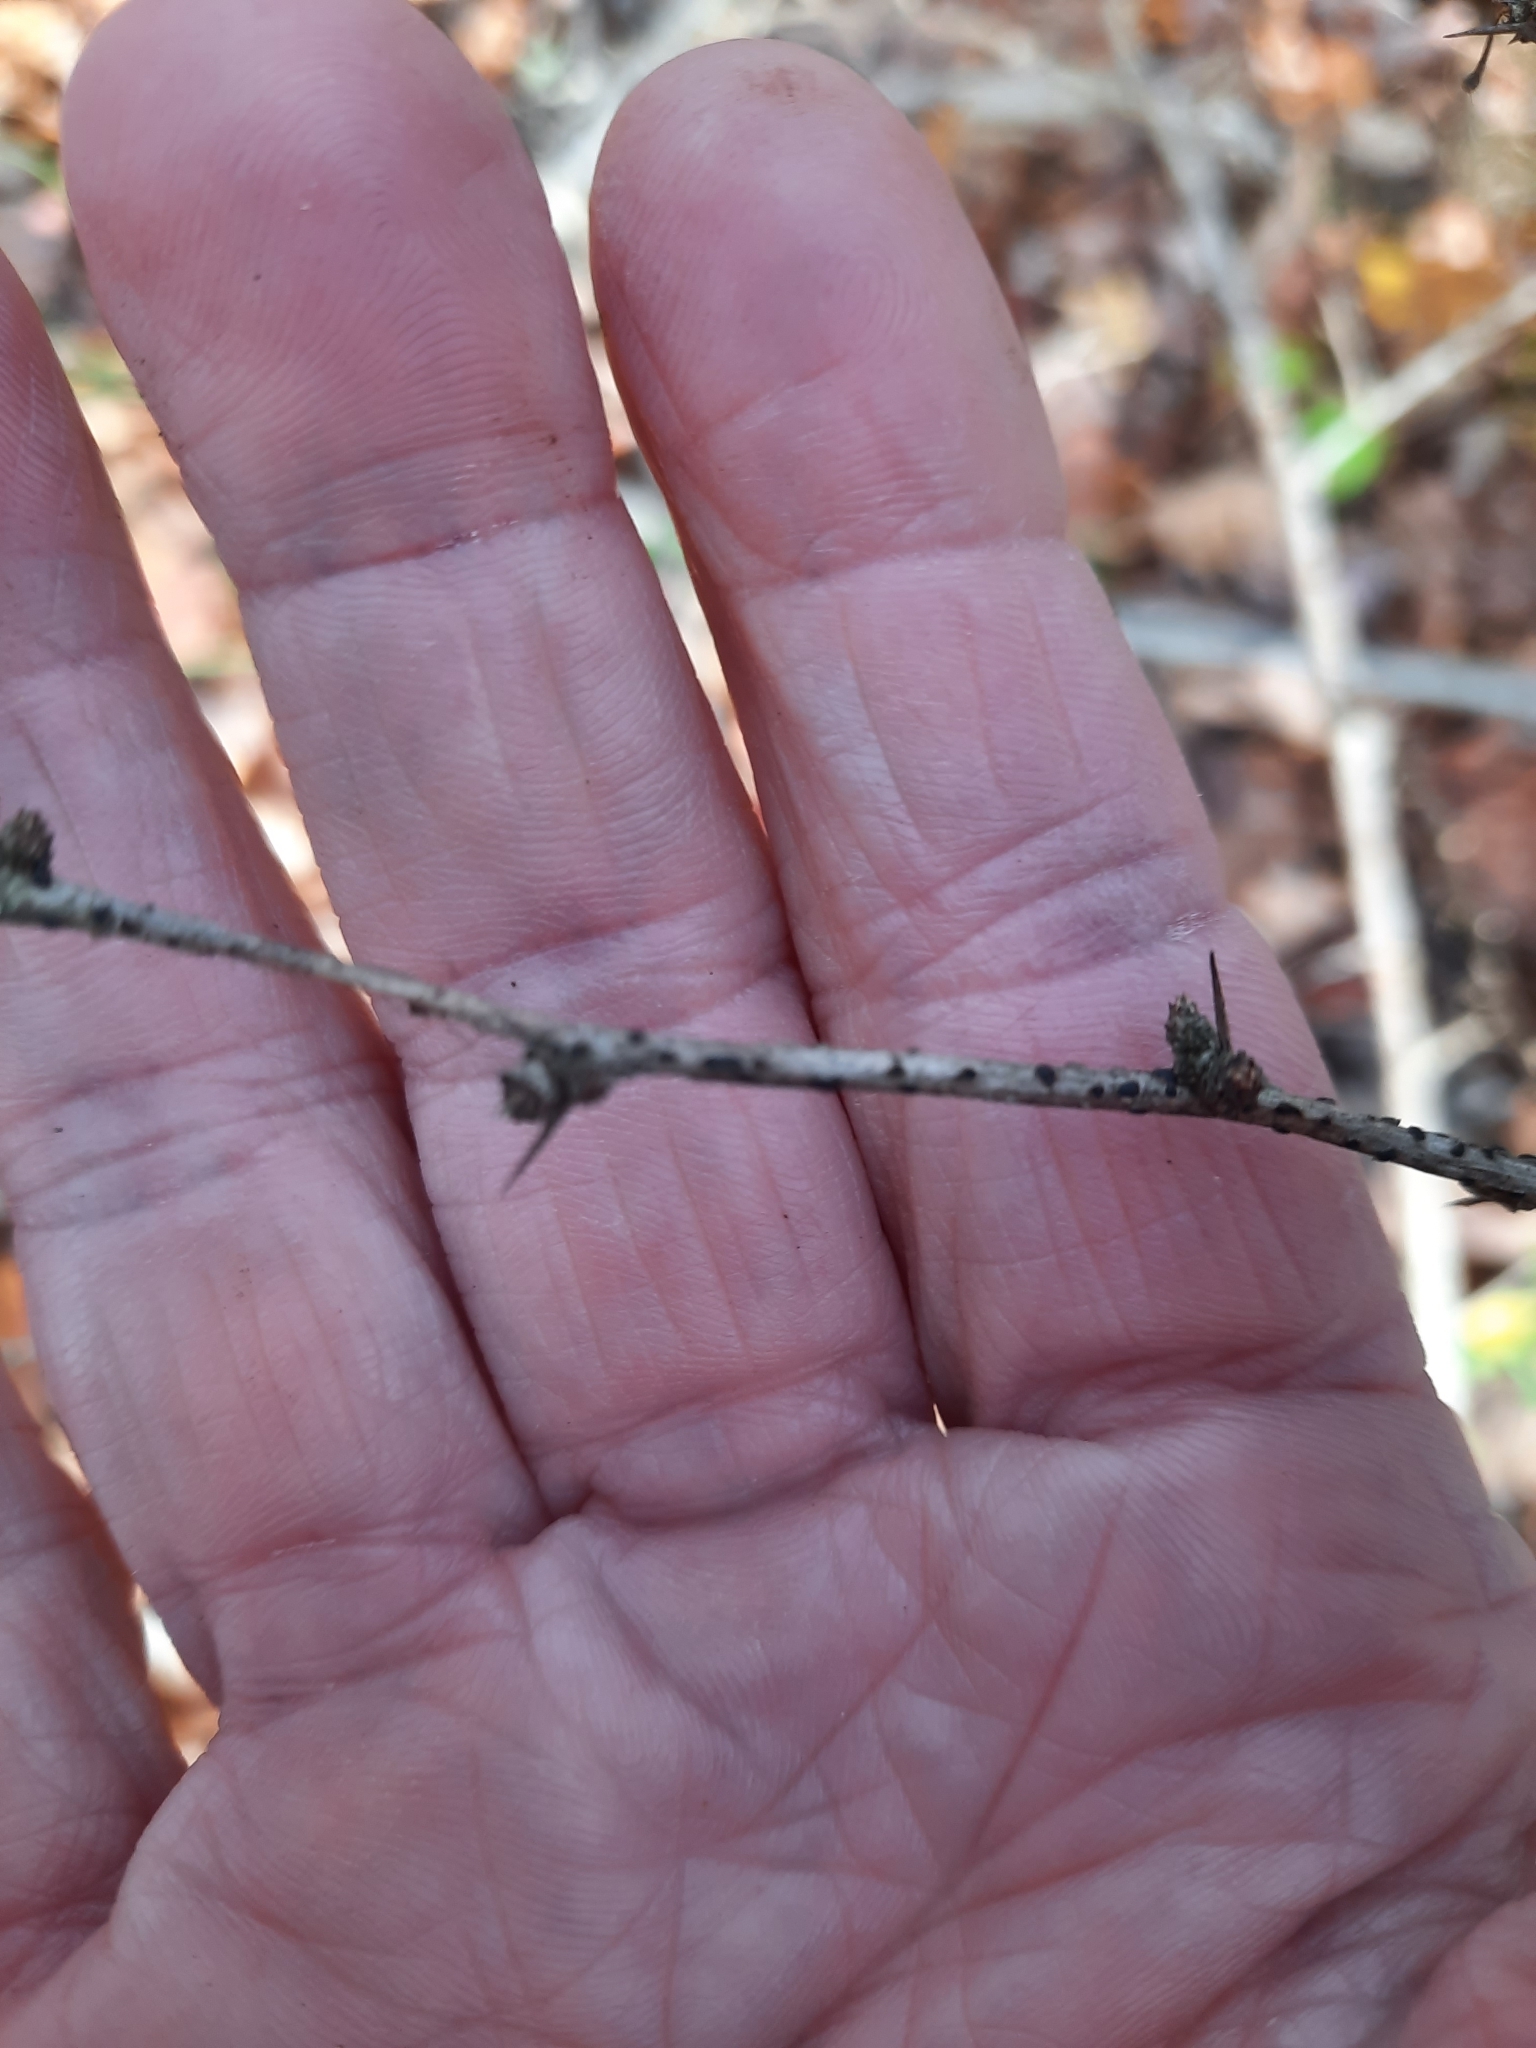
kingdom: Plantae
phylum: Tracheophyta
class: Magnoliopsida
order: Ranunculales
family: Berberidaceae
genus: Berberis
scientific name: Berberis thunbergii
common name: Japanese barberry
